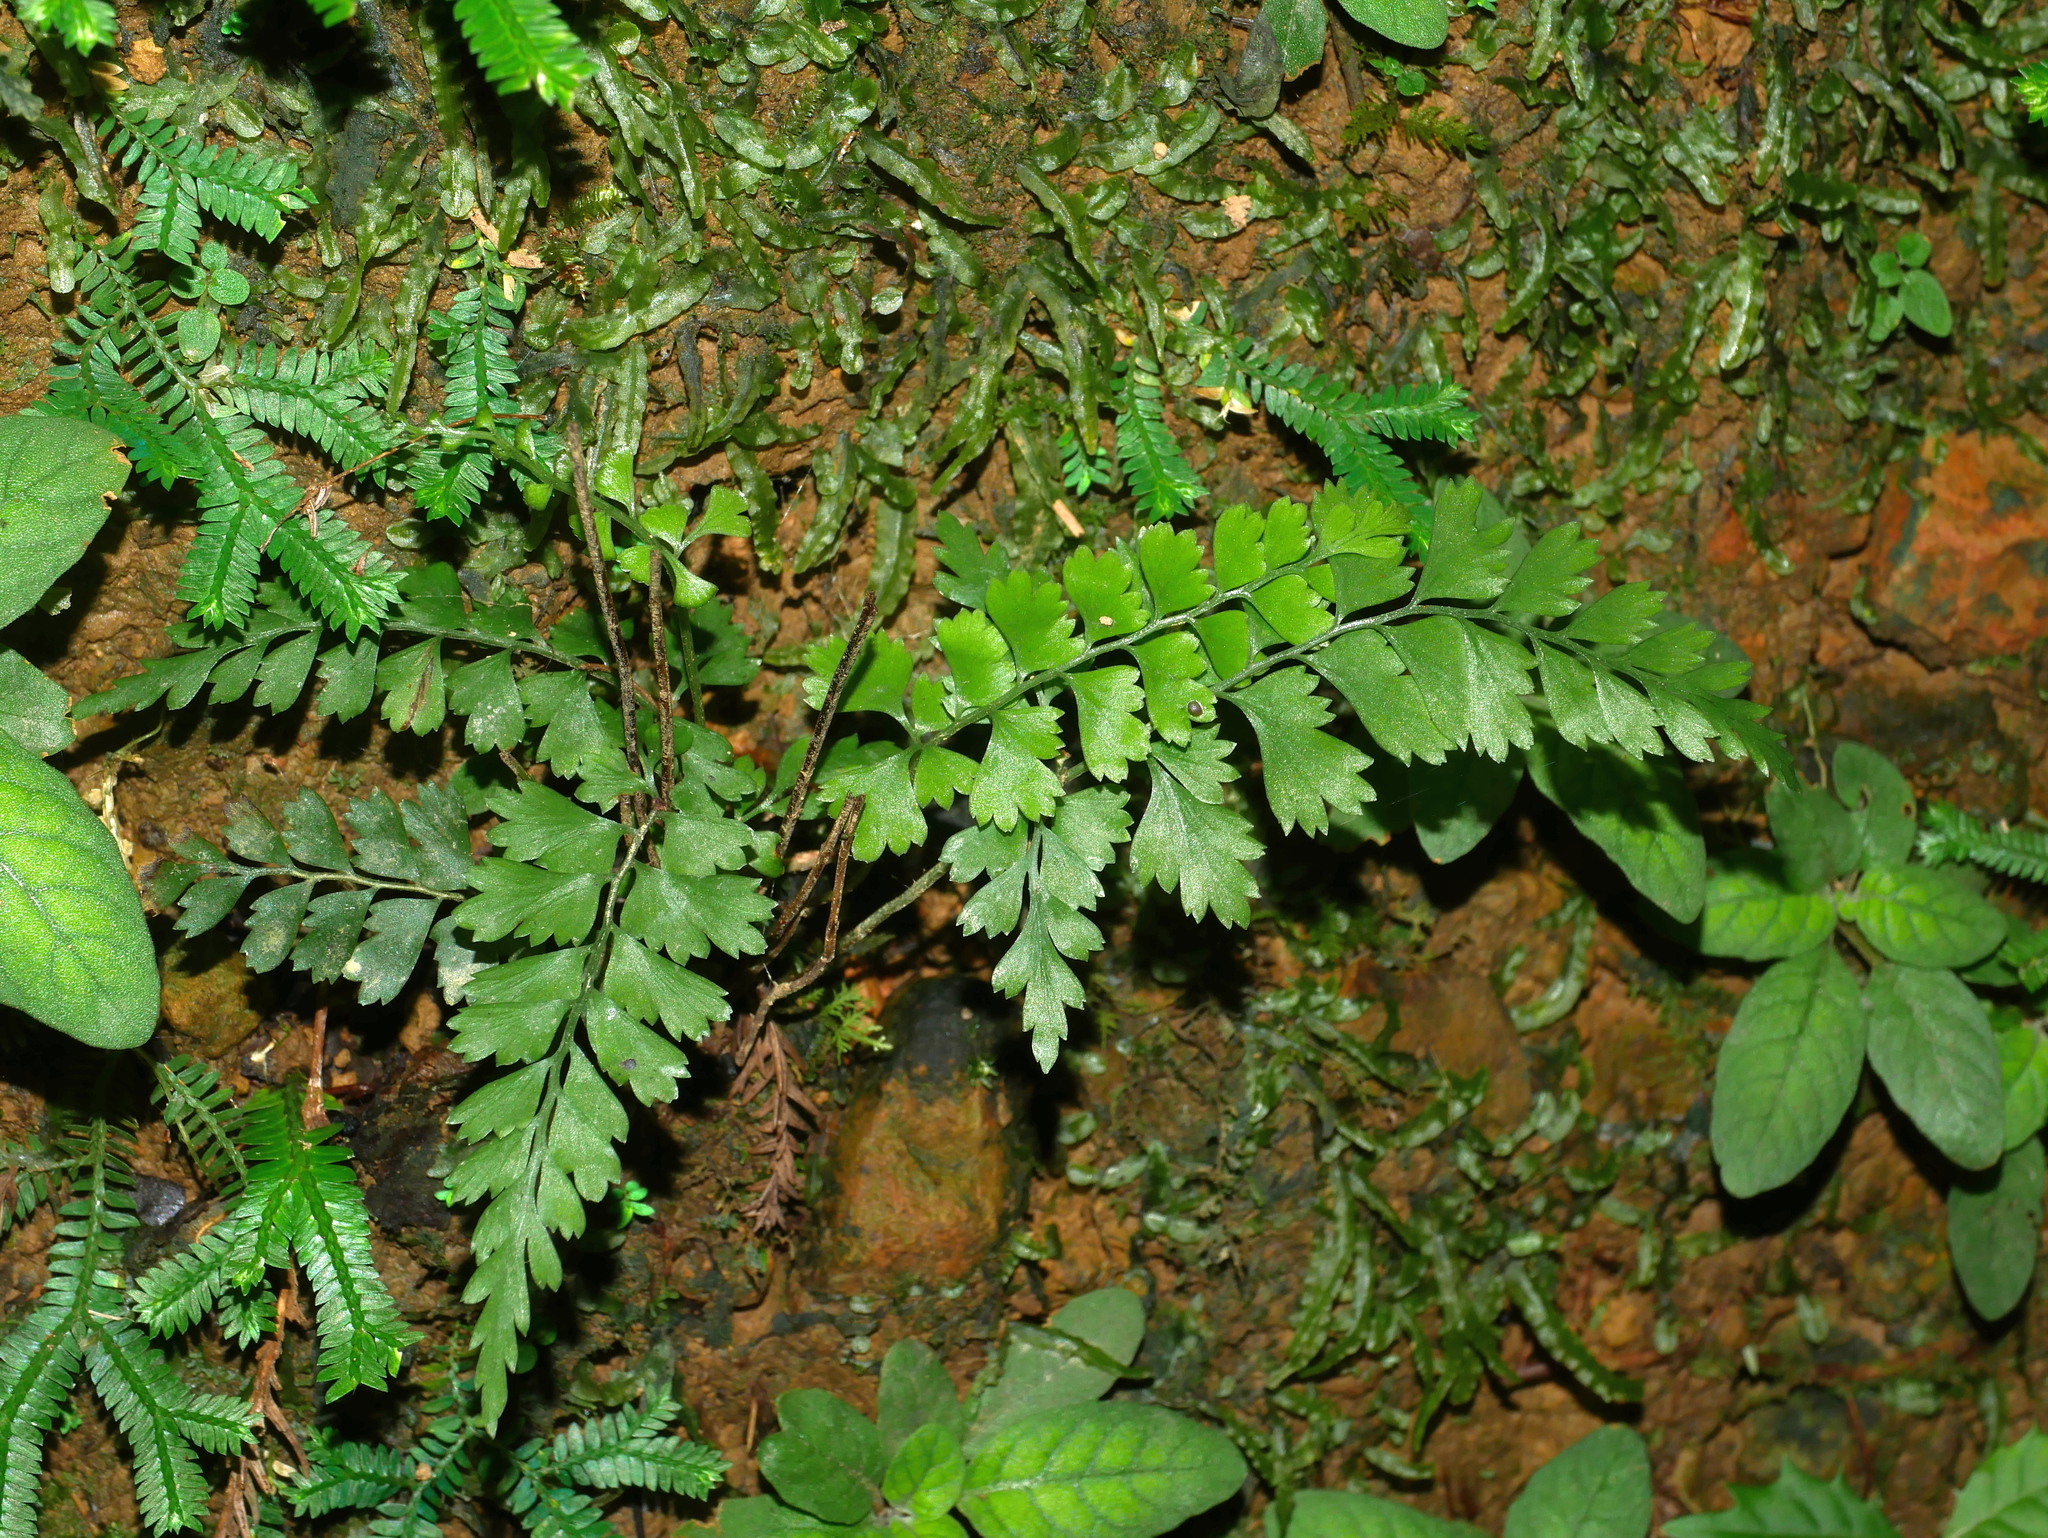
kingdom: Plantae
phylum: Tracheophyta
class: Polypodiopsida
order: Polypodiales
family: Lindsaeaceae
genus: Lindsaea
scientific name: Lindsaea chienii
